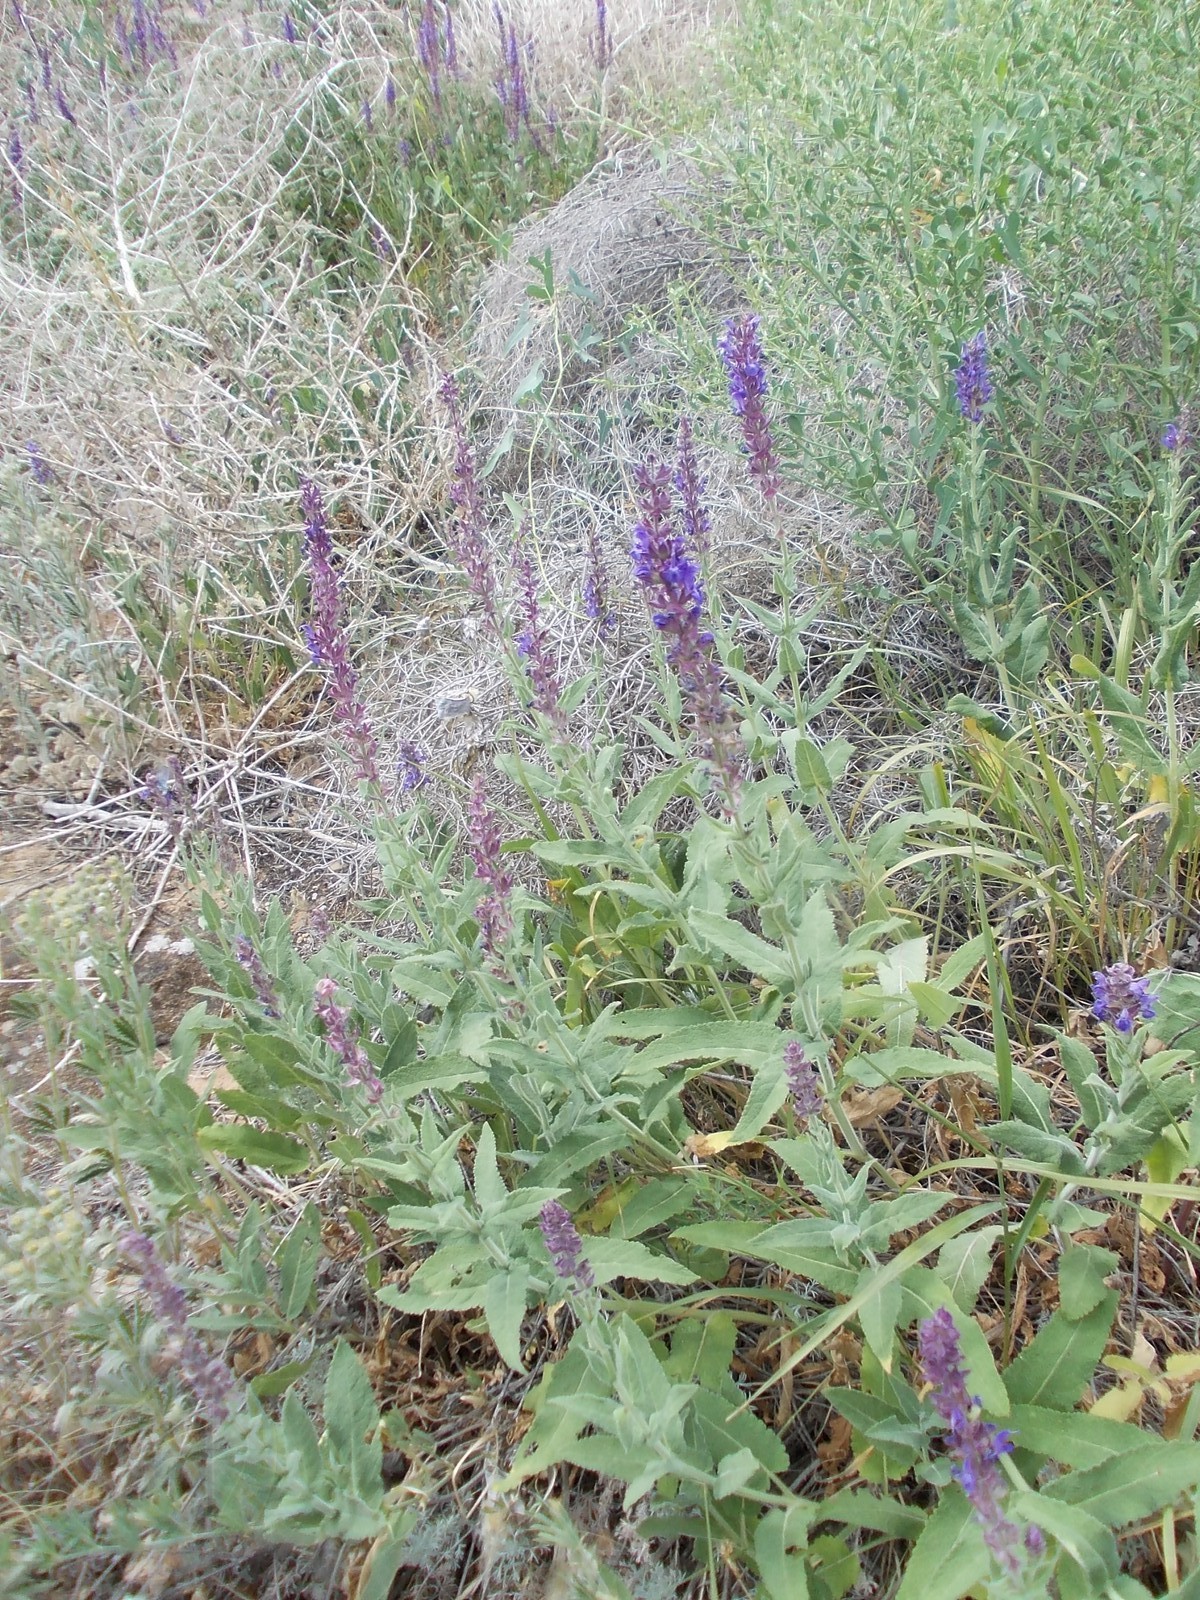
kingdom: Plantae
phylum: Tracheophyta
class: Magnoliopsida
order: Lamiales
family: Lamiaceae
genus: Salvia
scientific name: Salvia nemorosa
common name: Balkan clary
